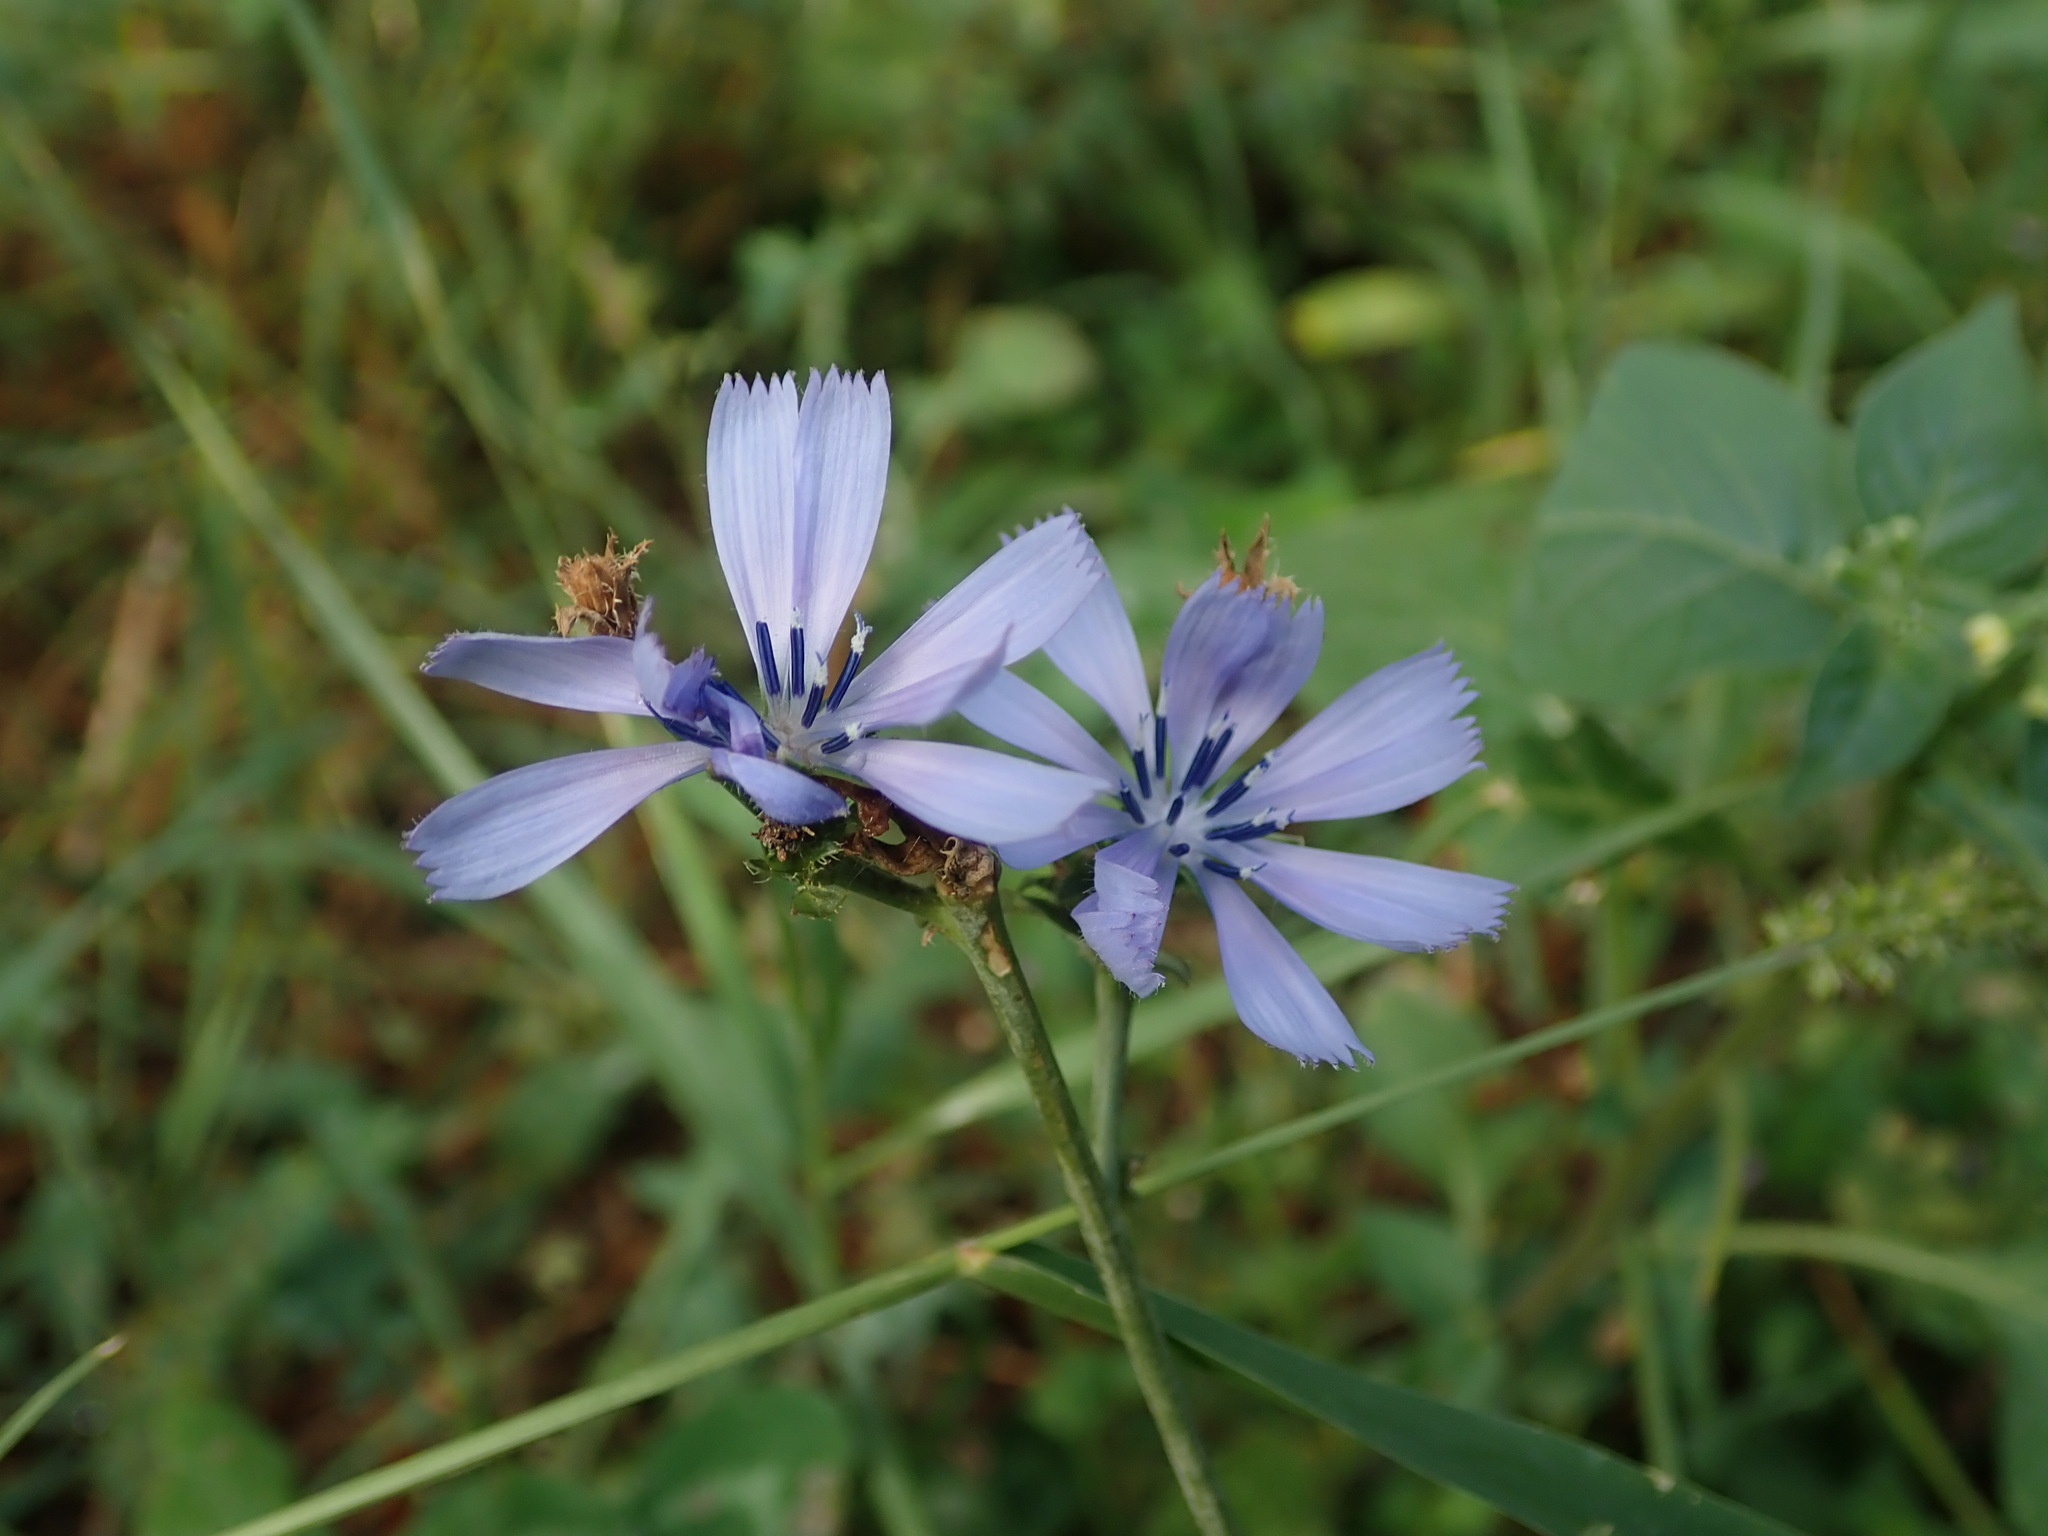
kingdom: Plantae
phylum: Tracheophyta
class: Magnoliopsida
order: Asterales
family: Asteraceae
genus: Cichorium
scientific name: Cichorium intybus
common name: Chicory
